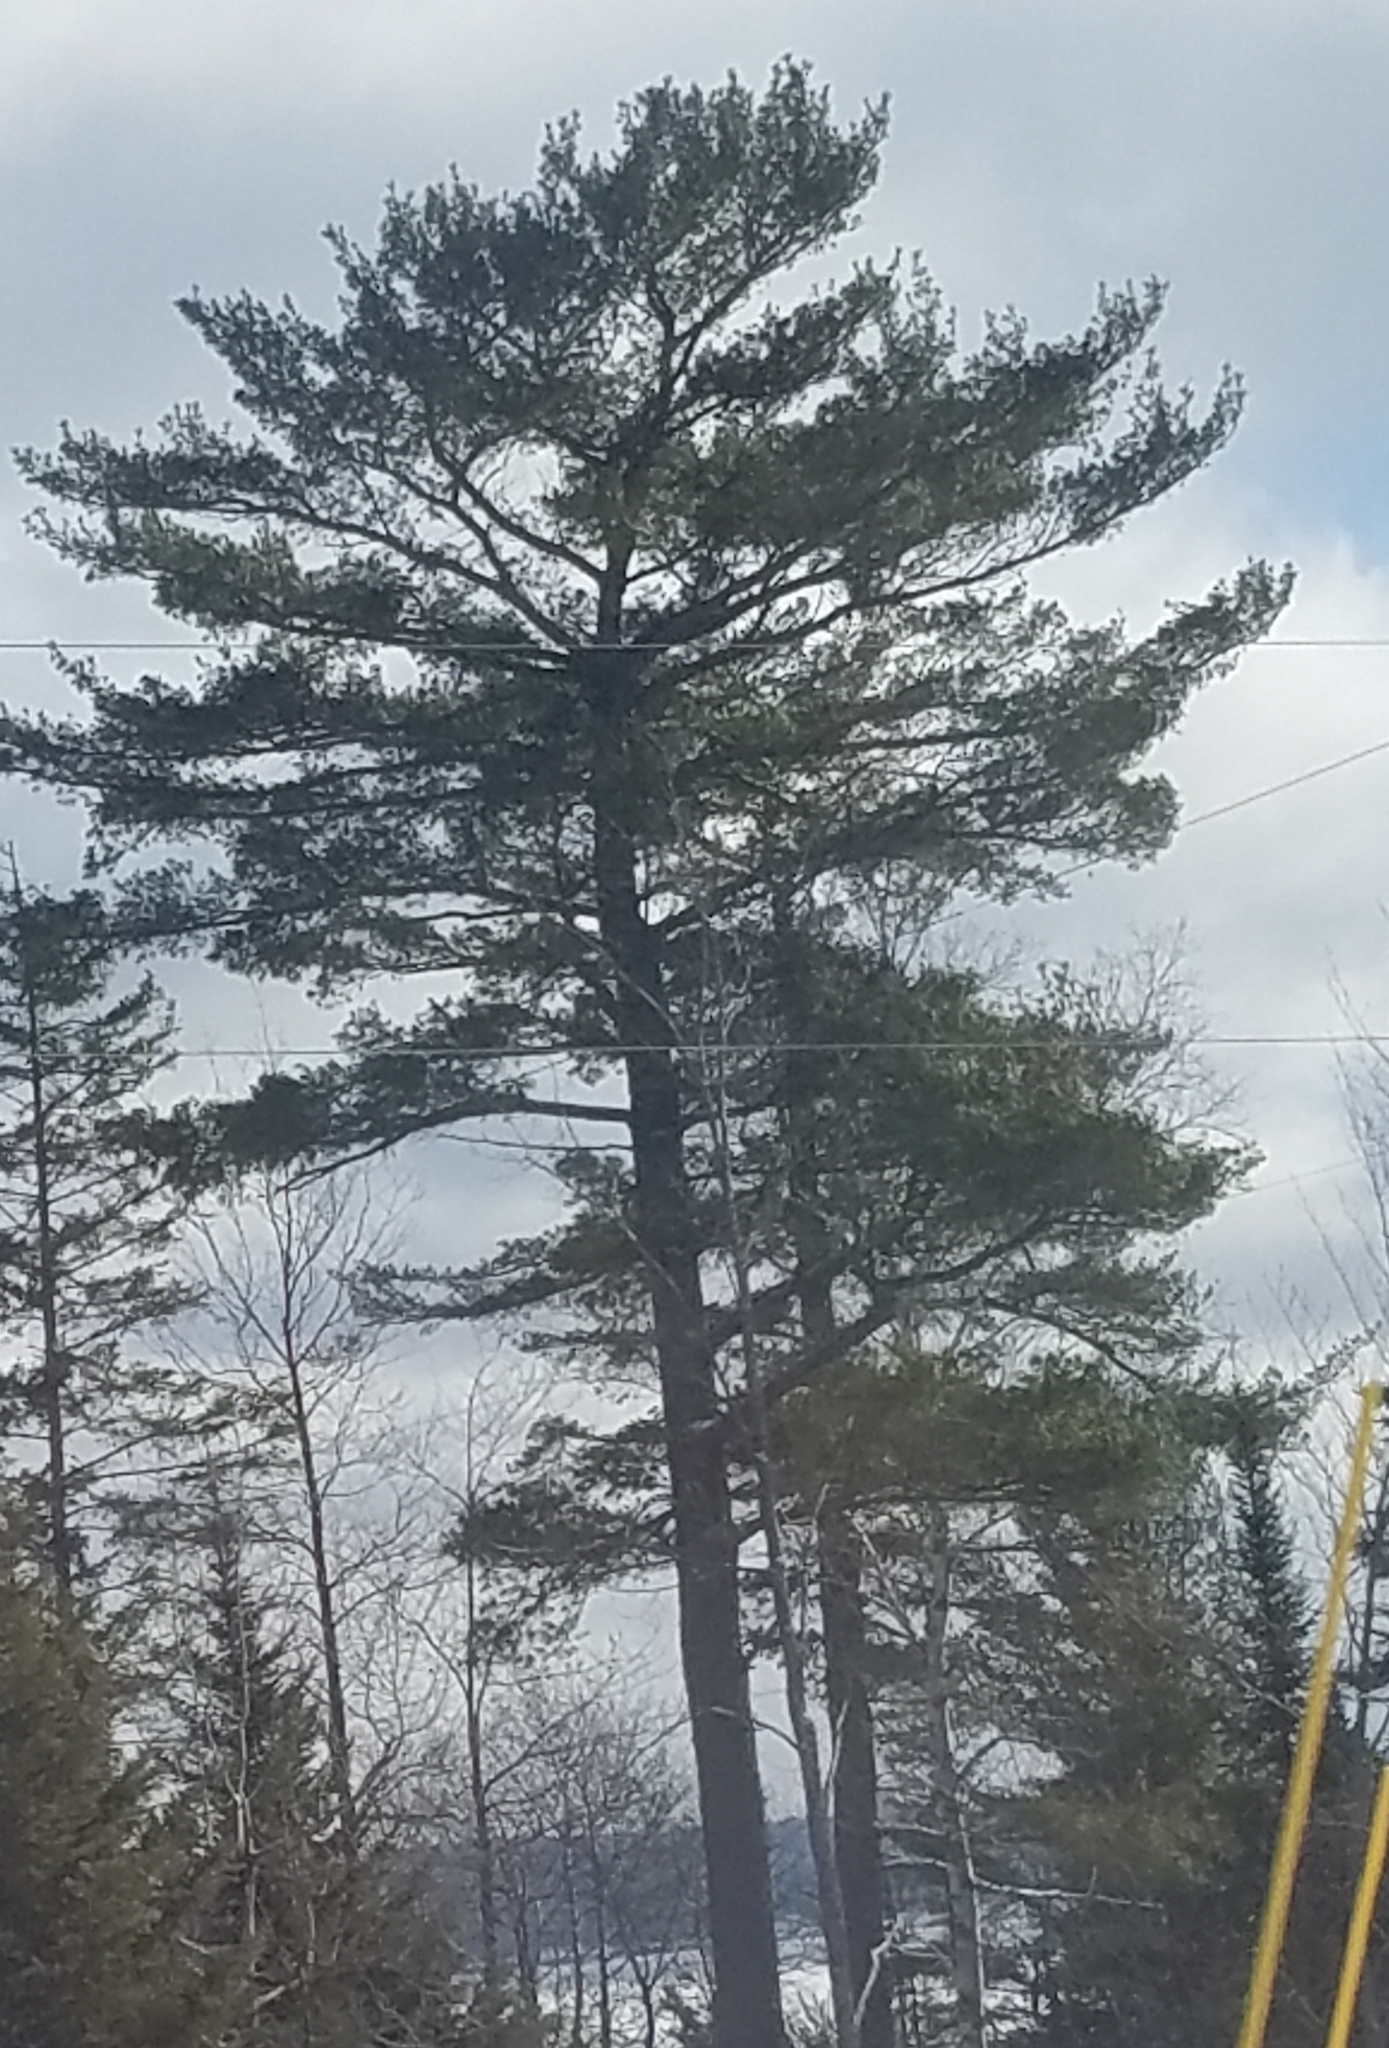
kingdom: Plantae
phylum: Tracheophyta
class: Pinopsida
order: Pinales
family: Pinaceae
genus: Pinus
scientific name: Pinus strobus
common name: Weymouth pine
